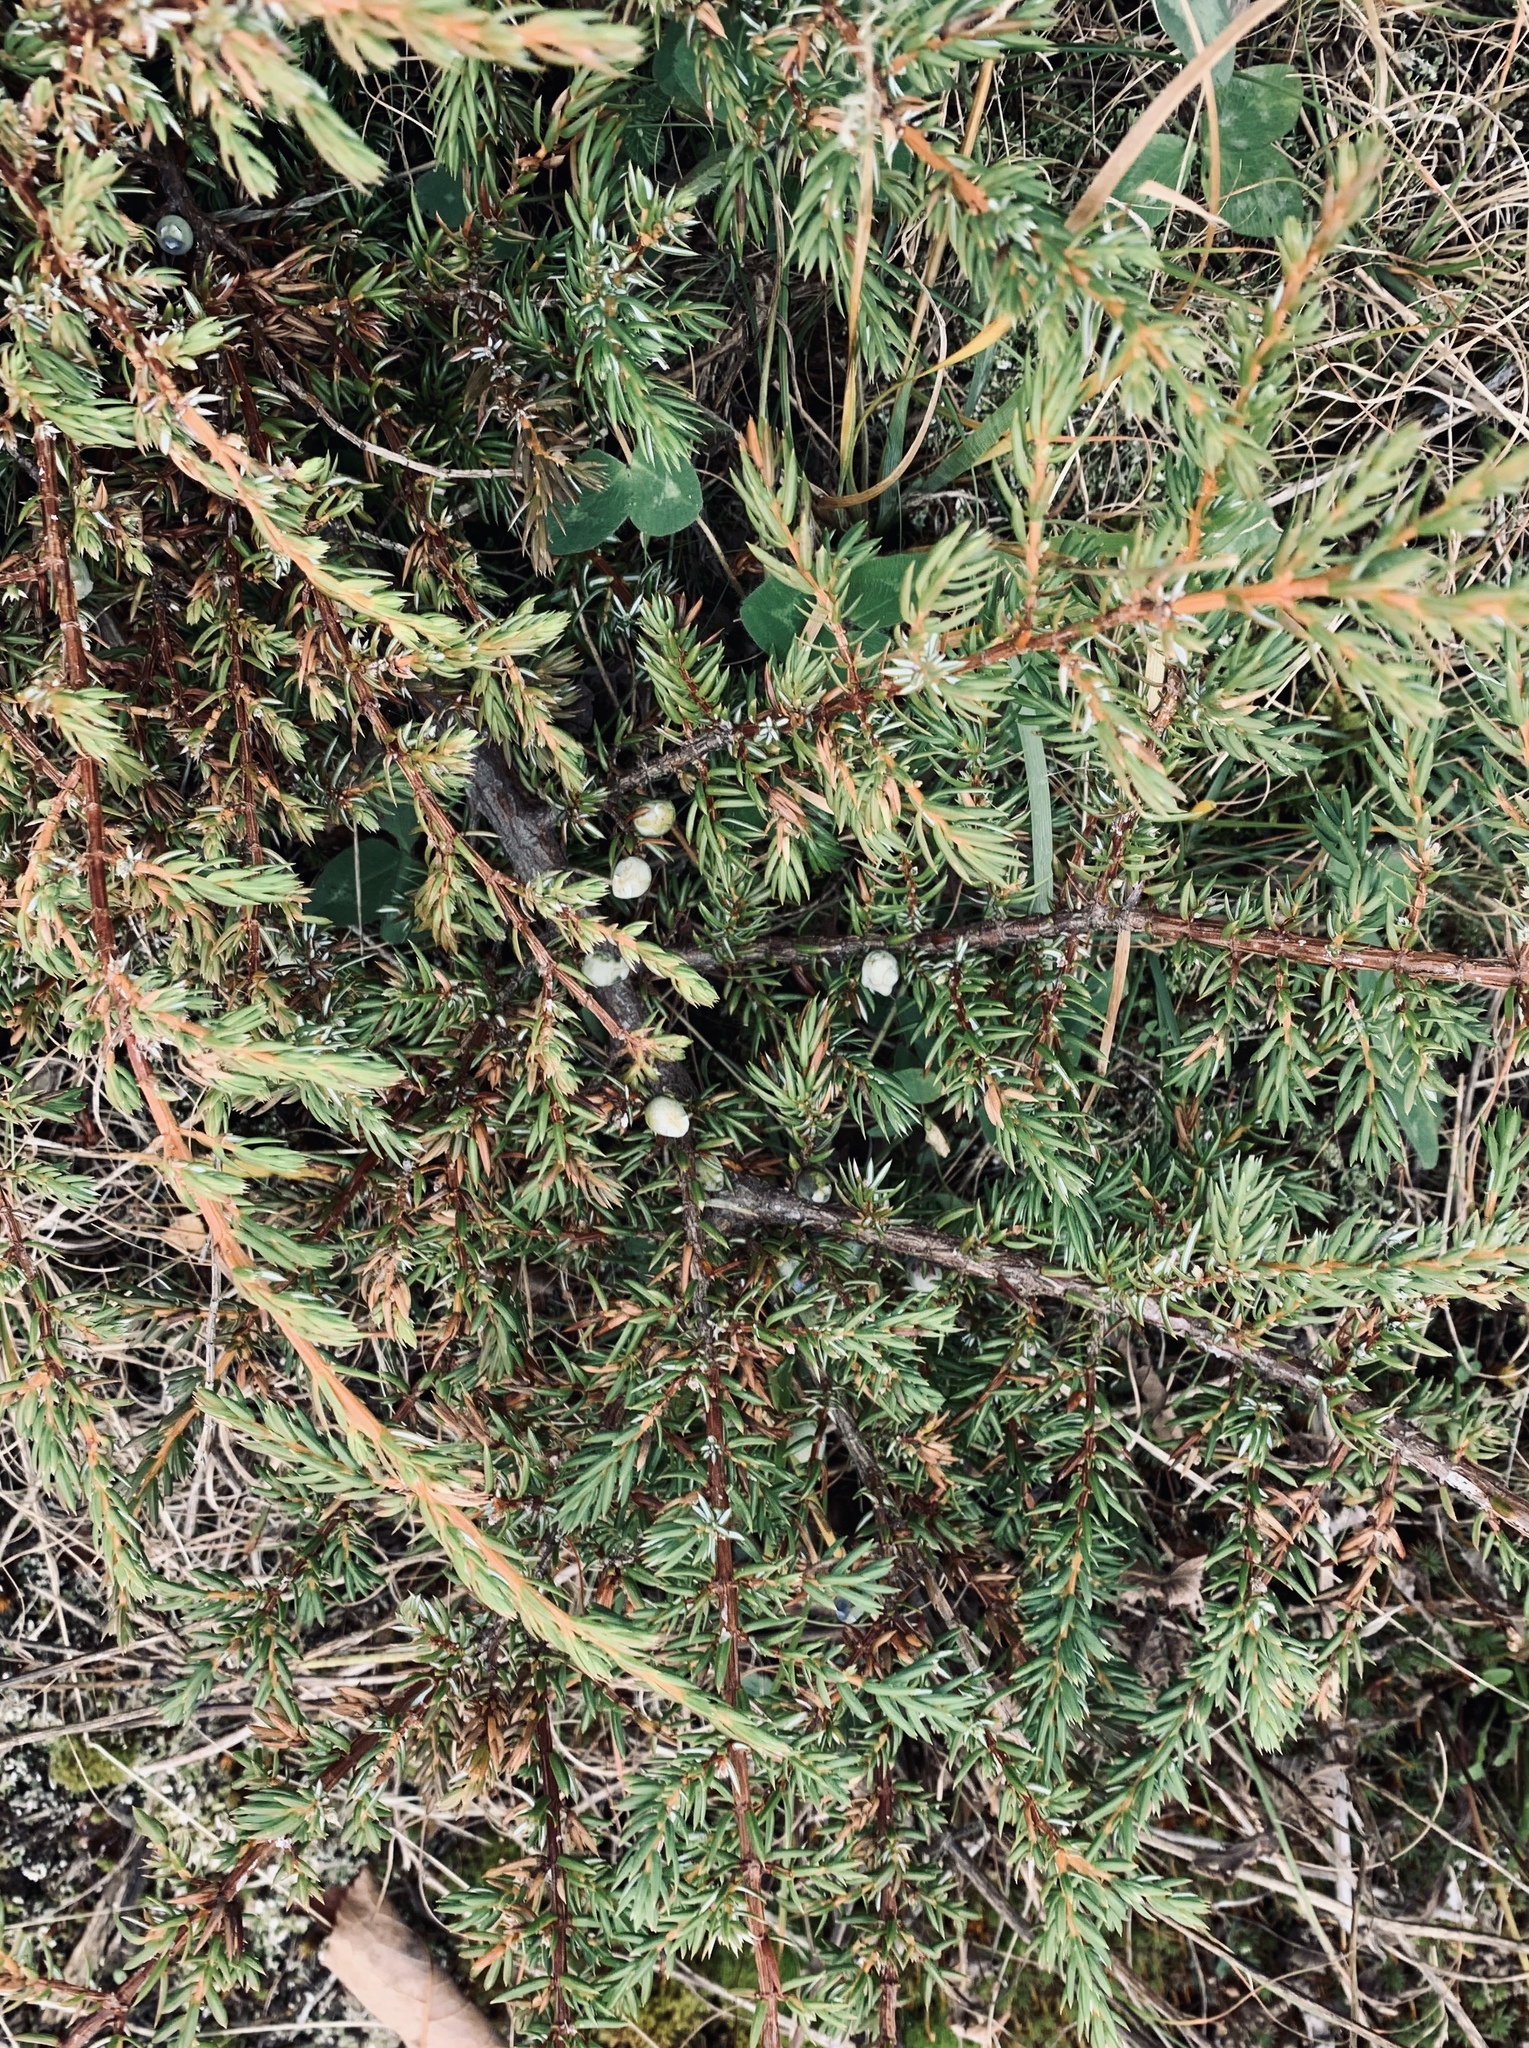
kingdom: Plantae
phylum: Tracheophyta
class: Pinopsida
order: Pinales
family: Cupressaceae
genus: Juniperus
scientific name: Juniperus communis
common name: Common juniper
